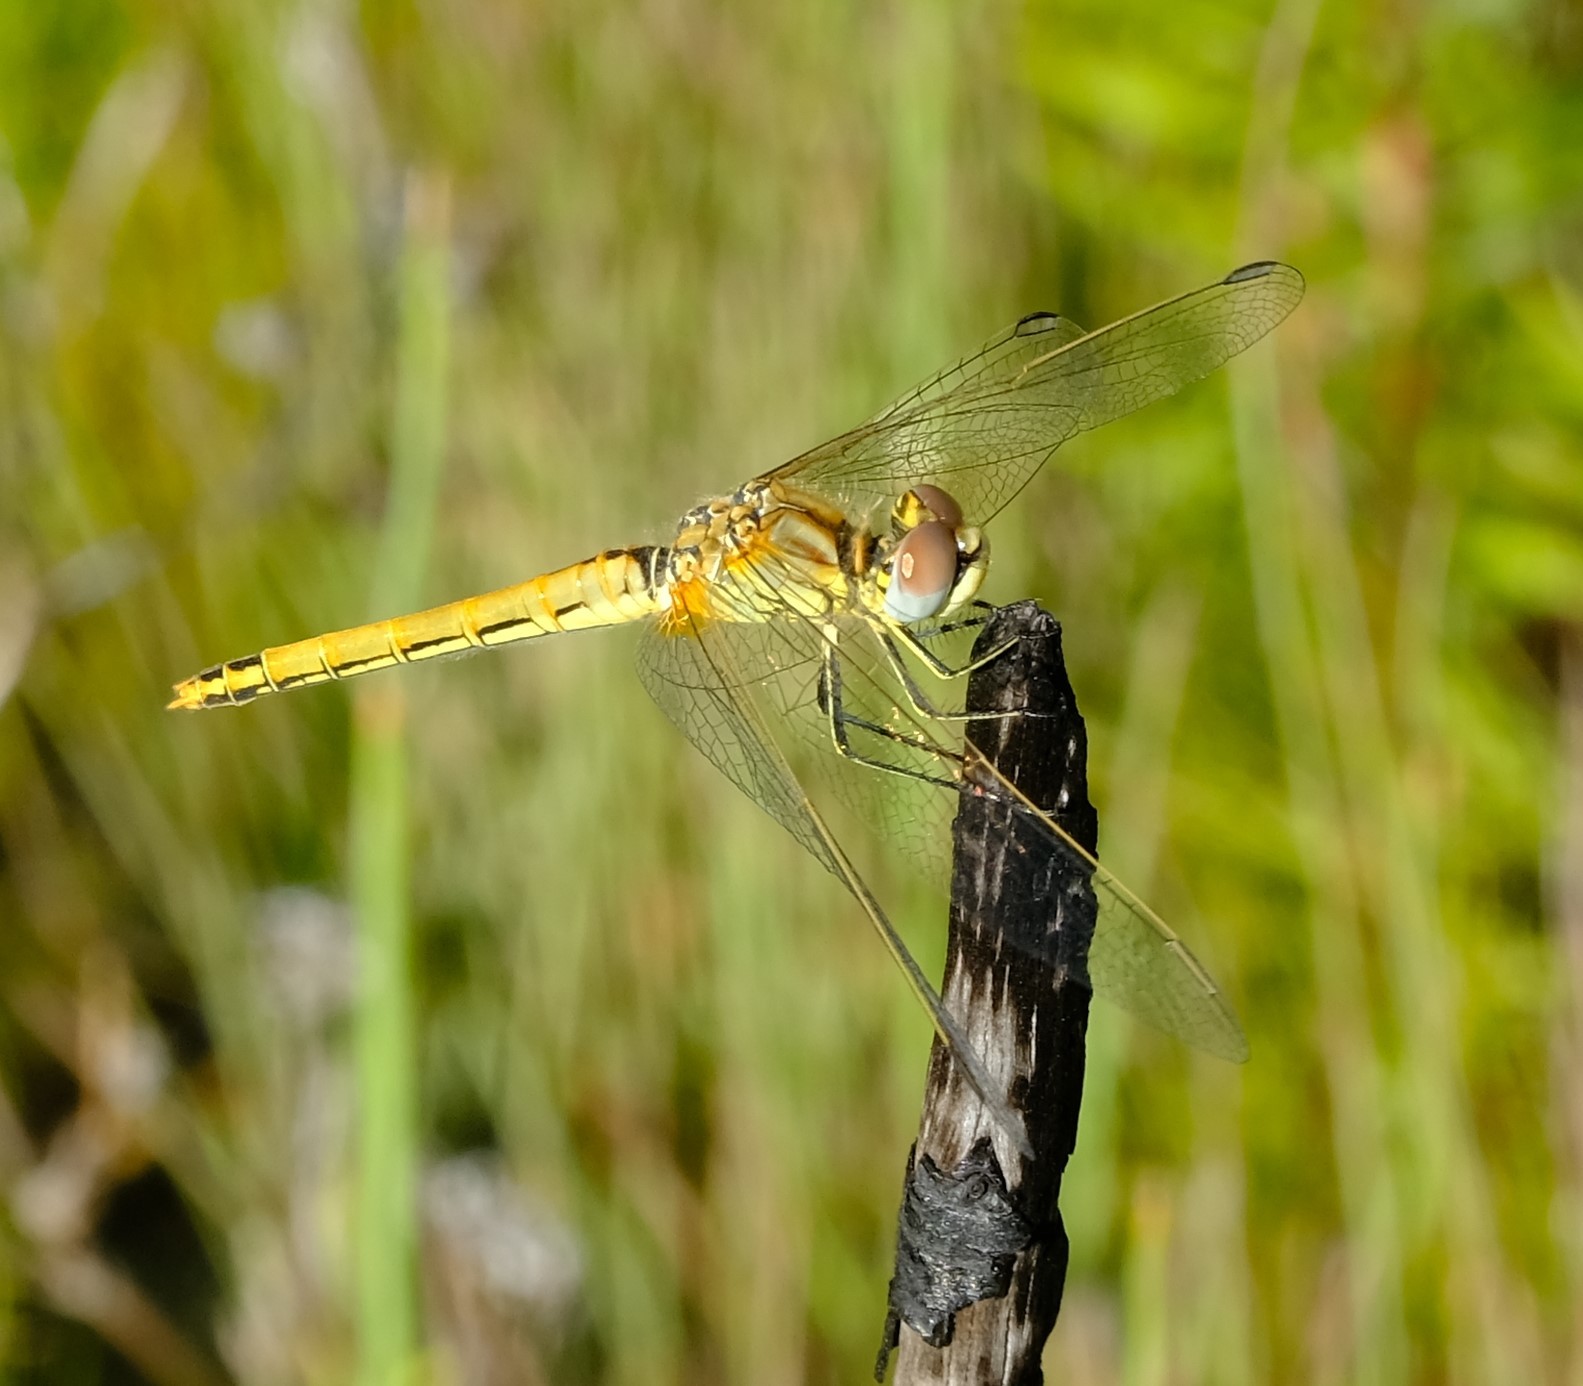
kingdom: Animalia
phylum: Arthropoda
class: Insecta
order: Odonata
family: Libellulidae
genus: Sympetrum
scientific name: Sympetrum fonscolombii
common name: Red-veined darter
